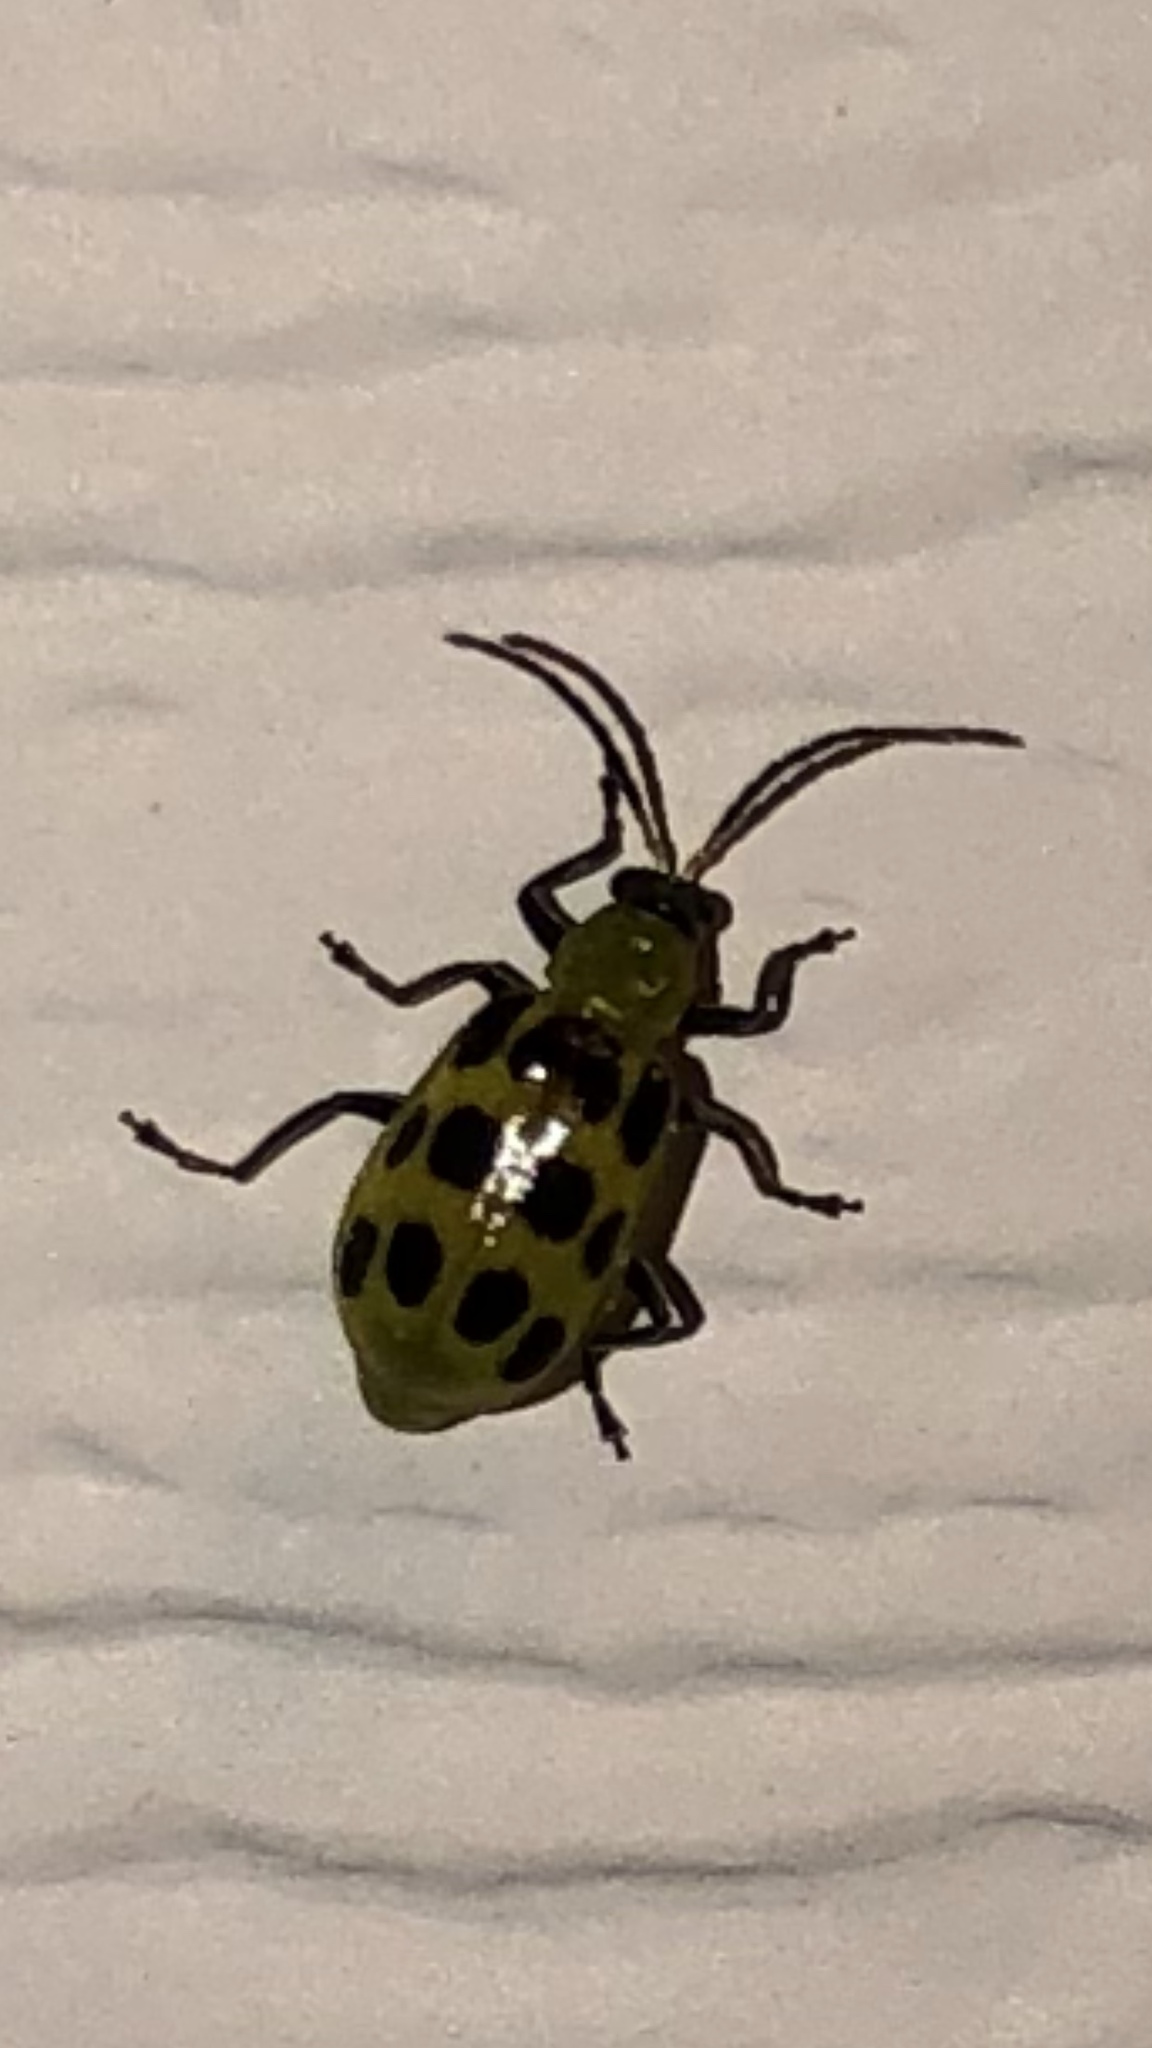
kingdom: Animalia
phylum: Arthropoda
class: Insecta
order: Coleoptera
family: Chrysomelidae
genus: Diabrotica
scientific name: Diabrotica undecimpunctata
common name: Spotted cucumber beetle
